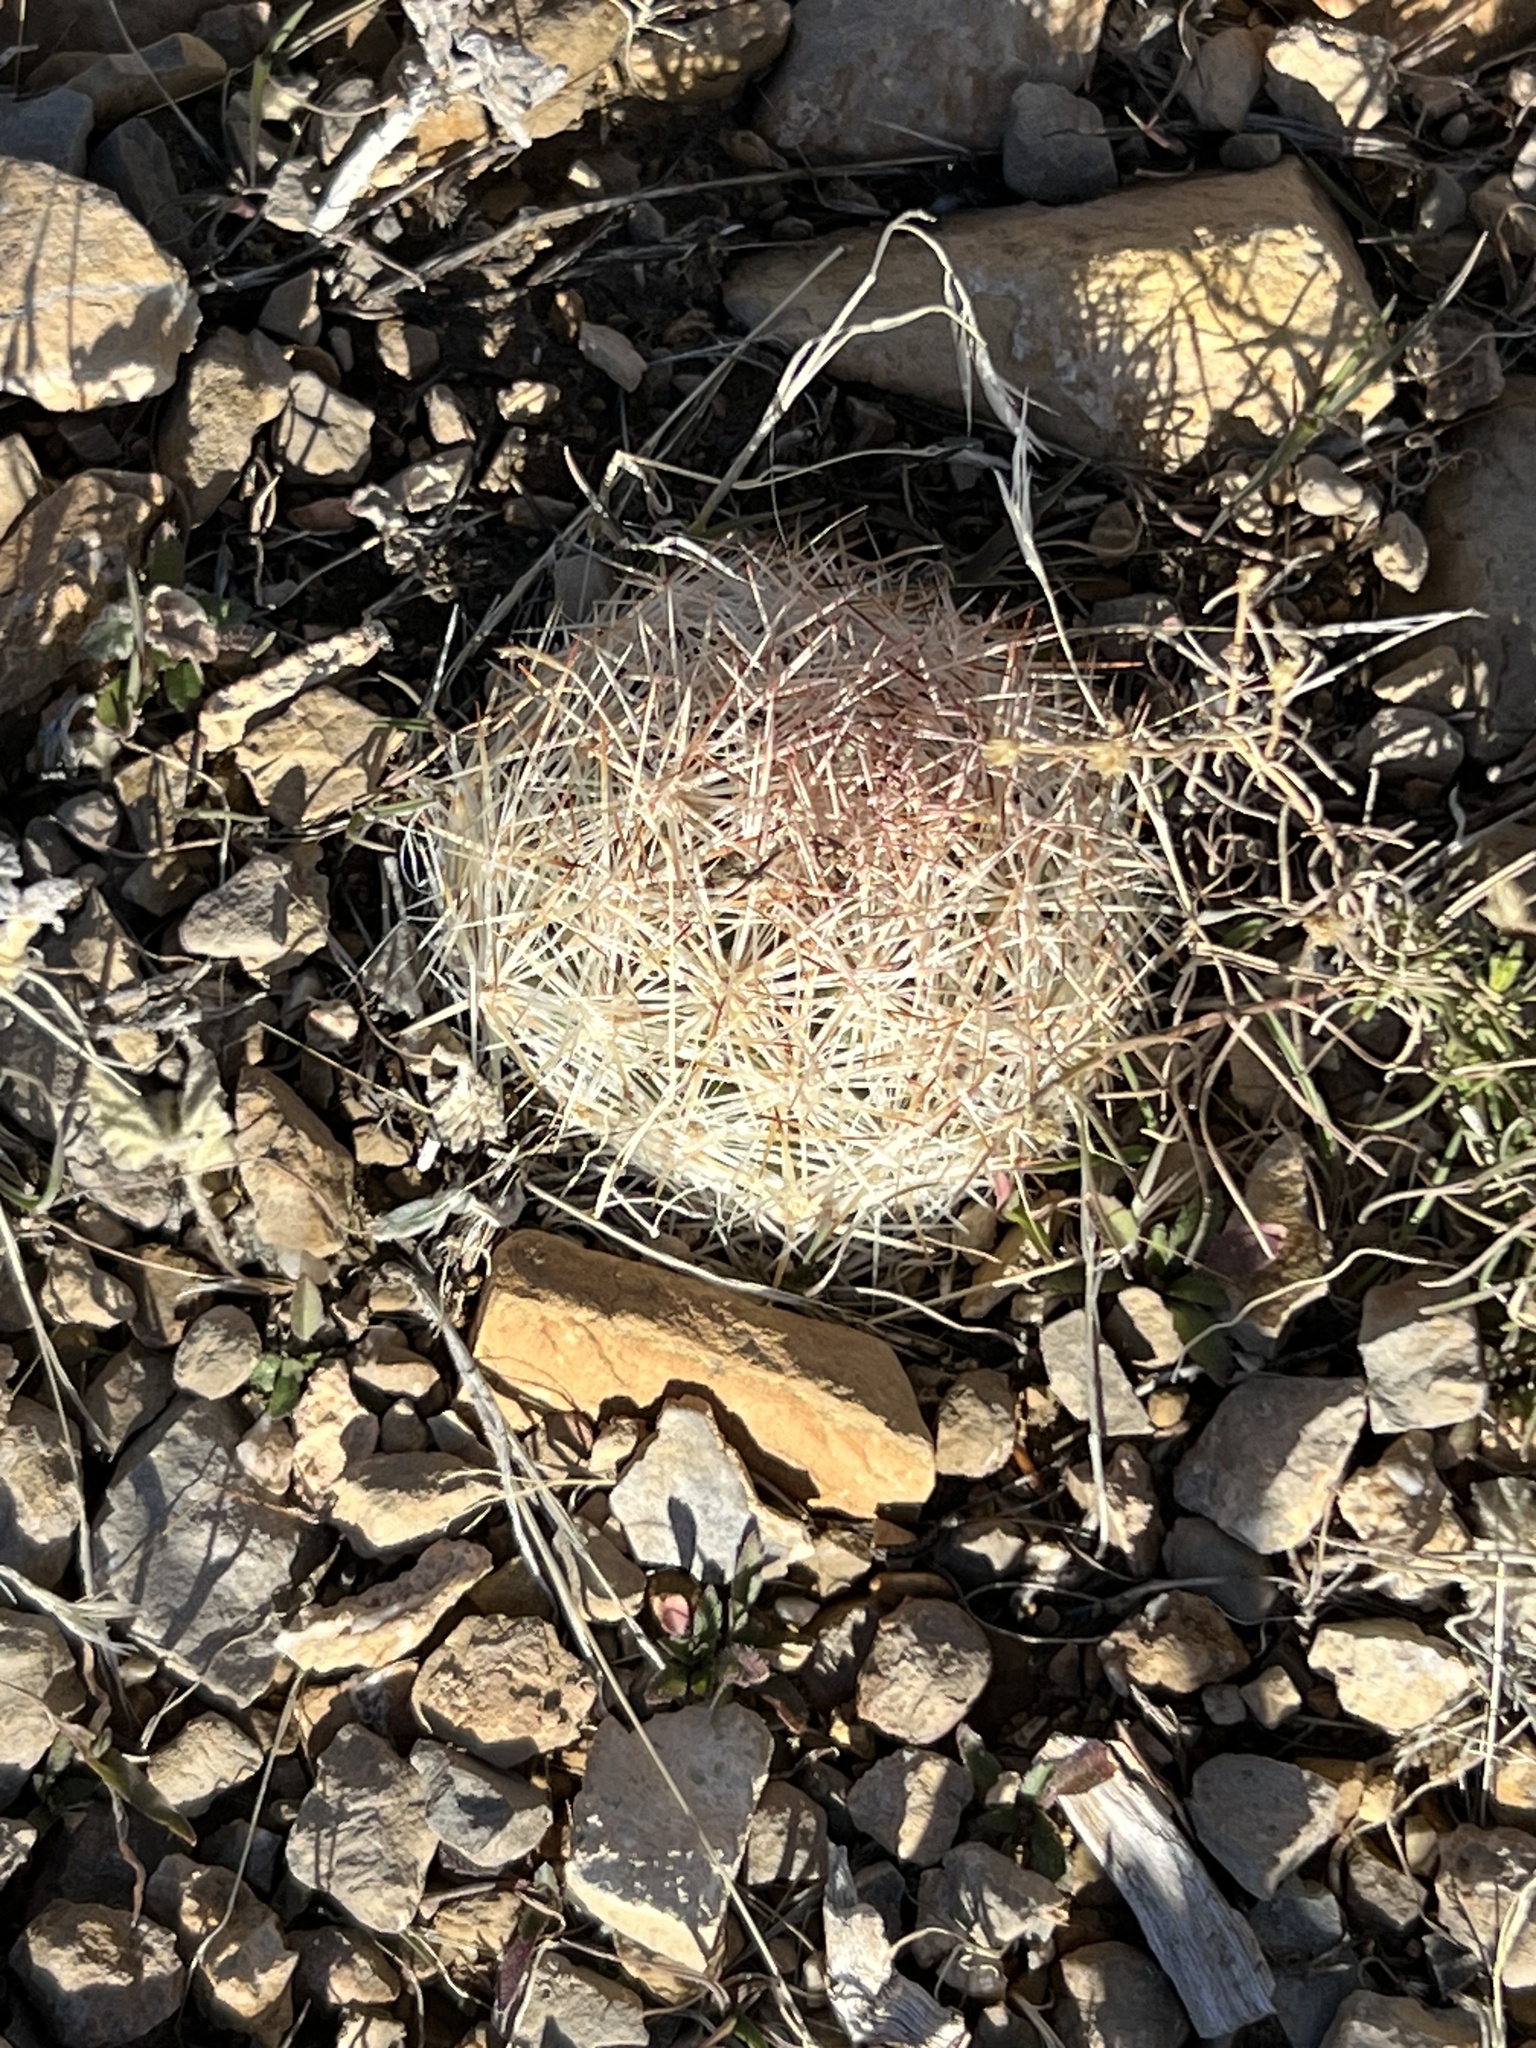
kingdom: Plantae
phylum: Tracheophyta
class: Magnoliopsida
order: Caryophyllales
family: Cactaceae
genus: Pelecyphora
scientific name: Pelecyphora dasyacantha
